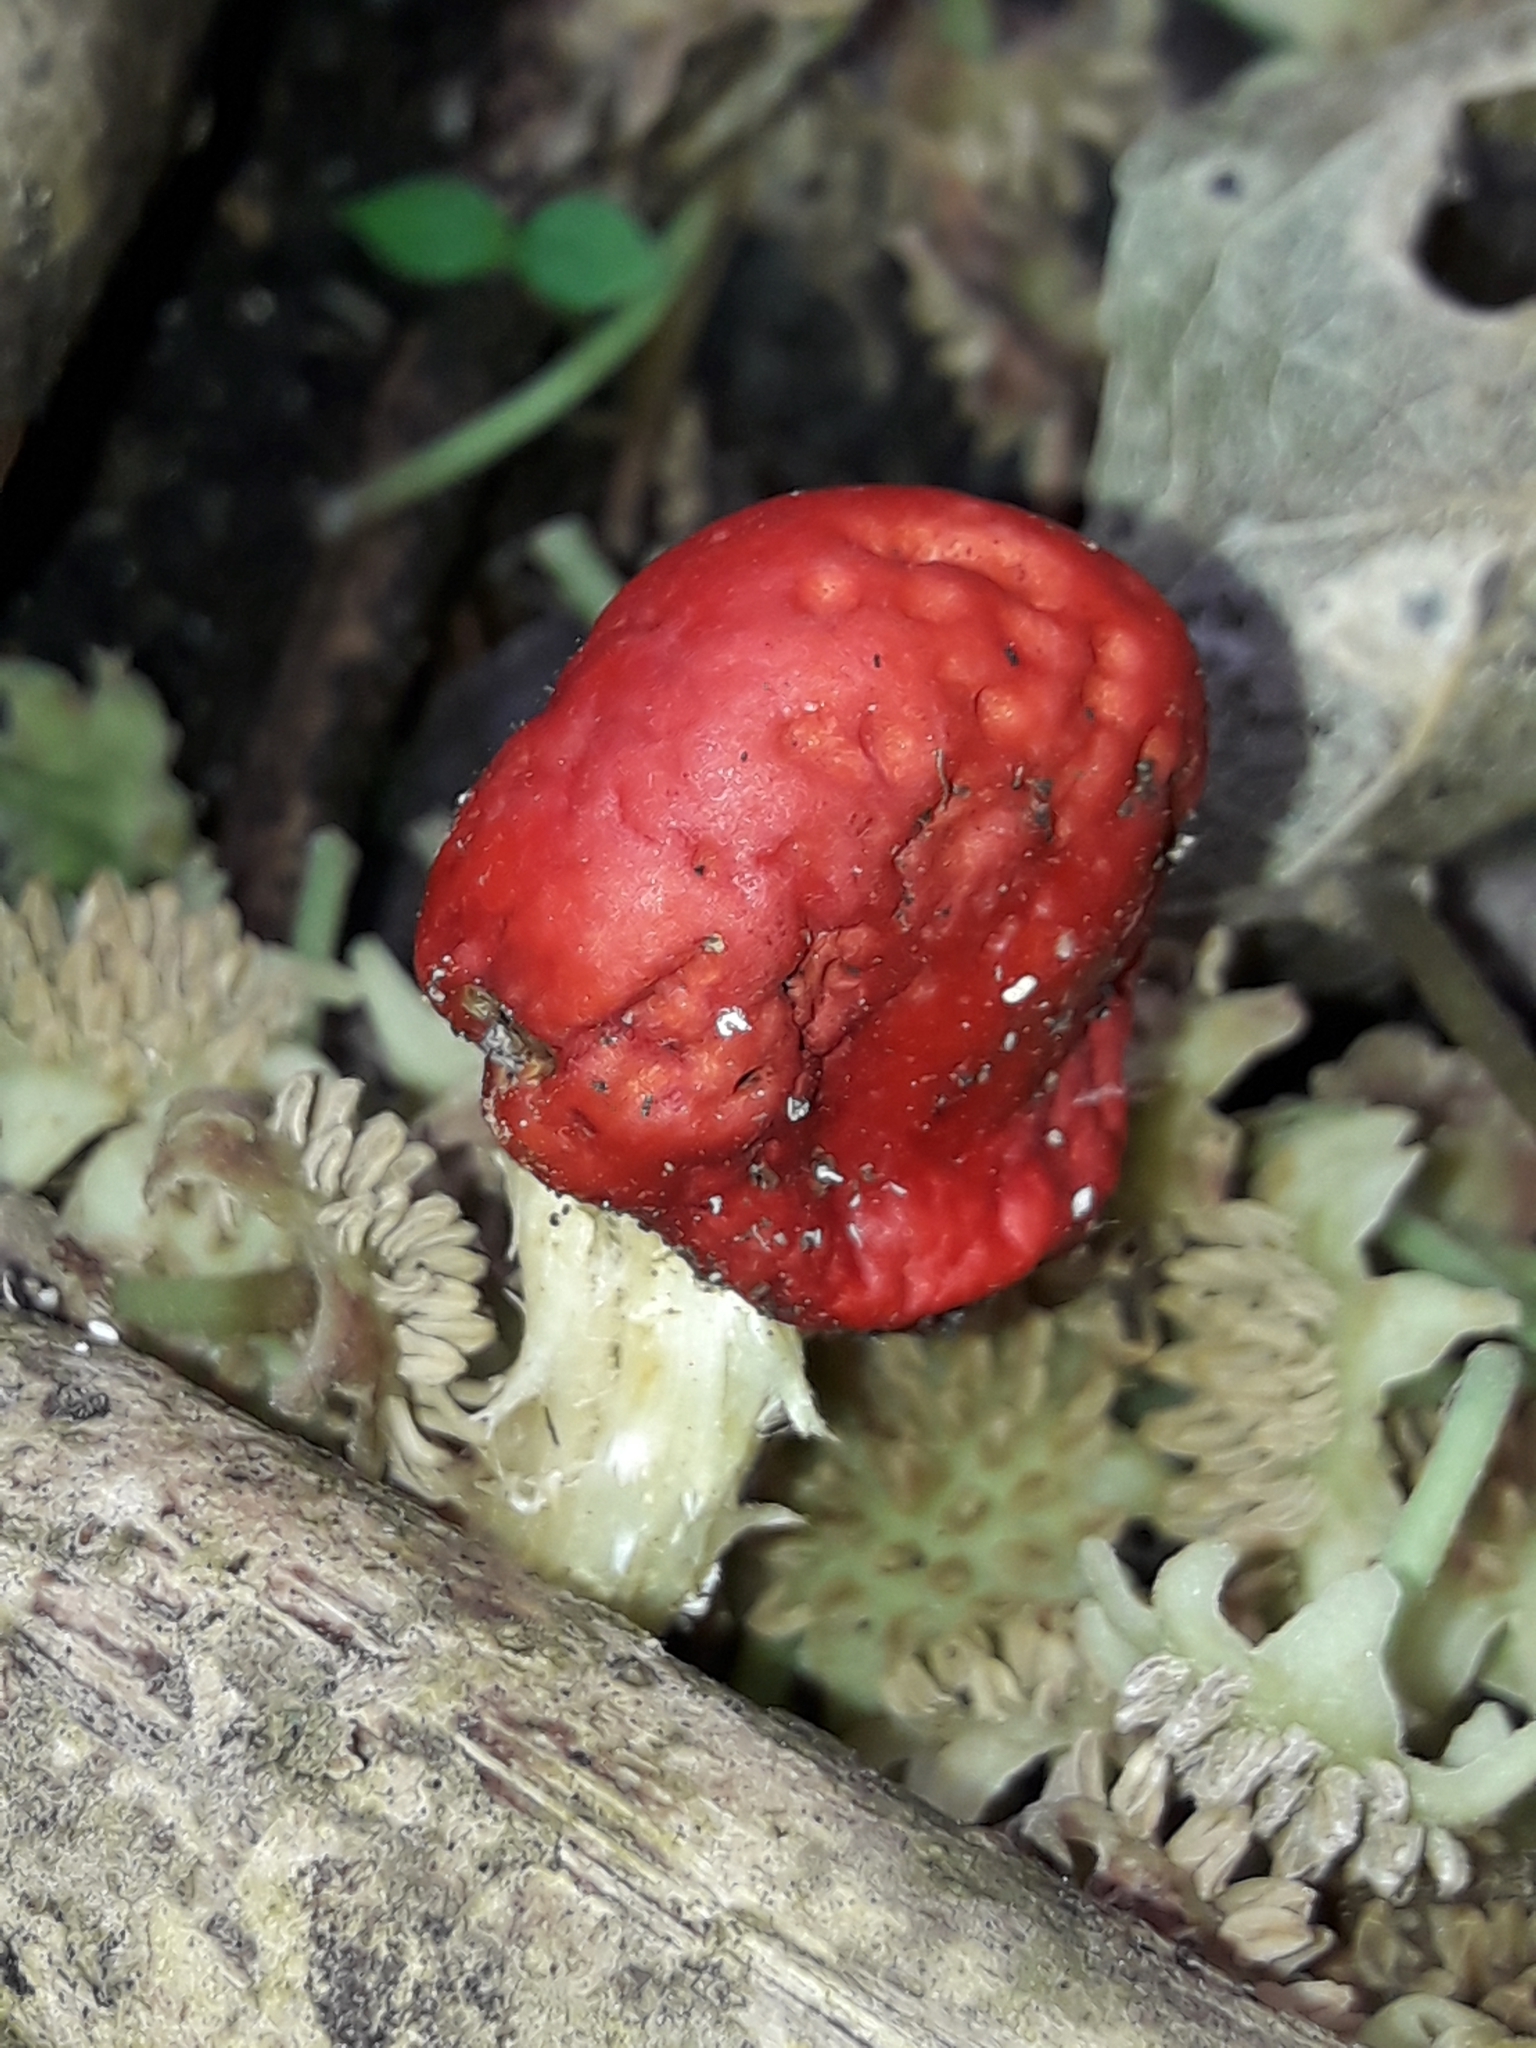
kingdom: Fungi
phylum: Basidiomycota
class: Agaricomycetes
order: Agaricales
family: Strophariaceae
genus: Leratiomyces
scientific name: Leratiomyces erythrocephalus
